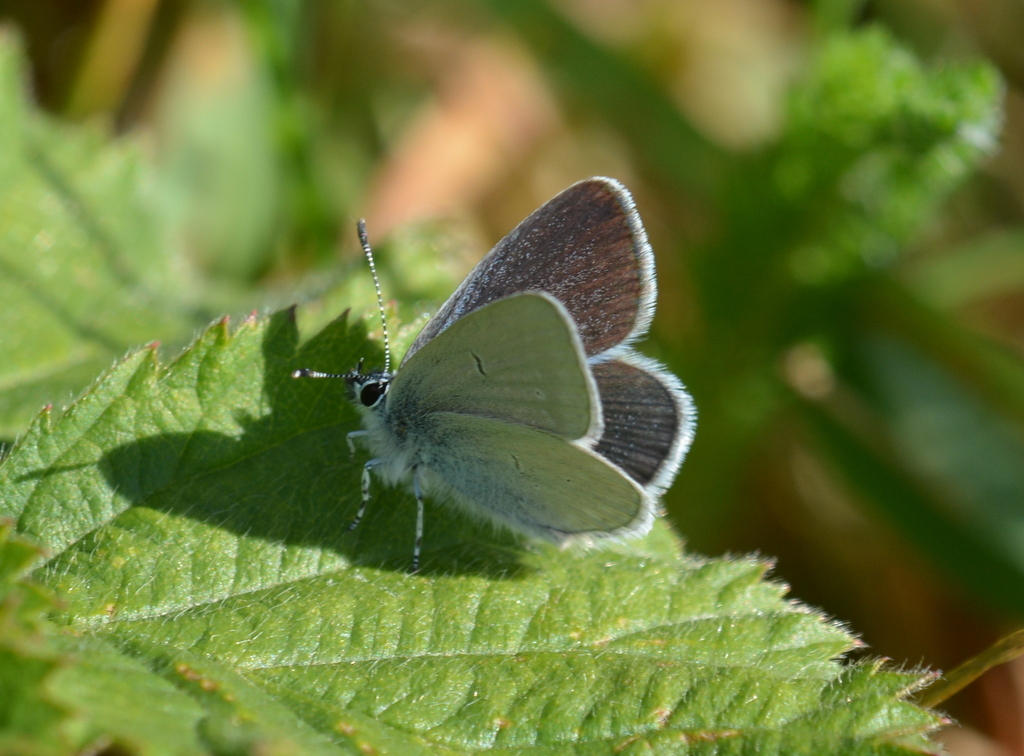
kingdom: Animalia
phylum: Arthropoda
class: Insecta
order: Lepidoptera
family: Lycaenidae
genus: Cupido
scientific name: Cupido minimus
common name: Small blue
